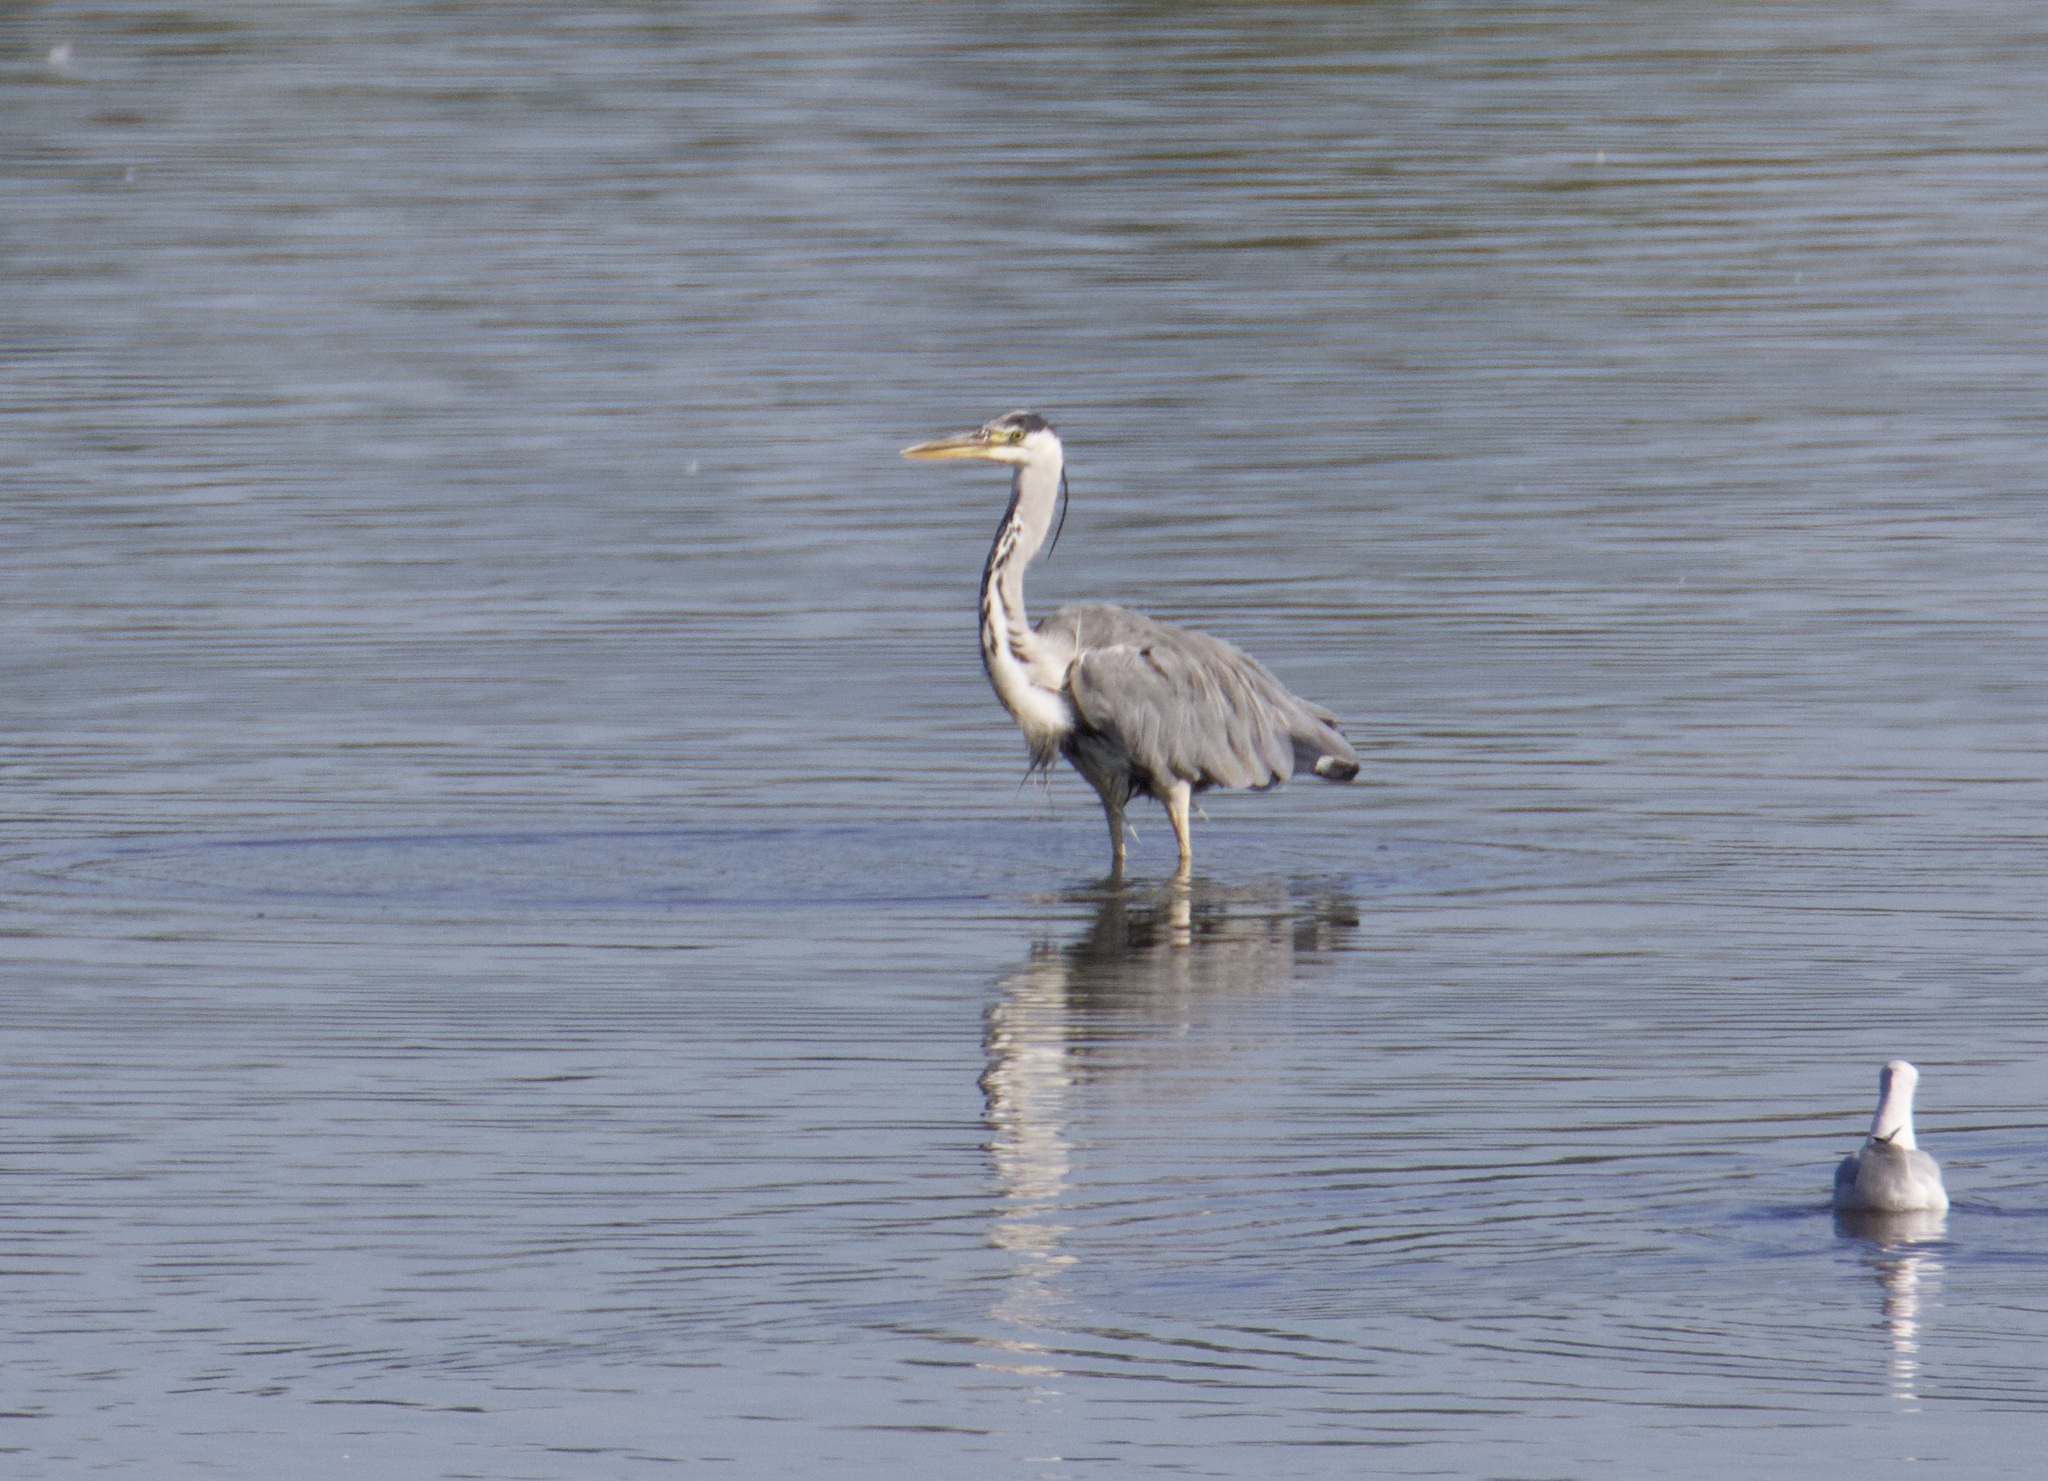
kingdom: Animalia
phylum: Chordata
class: Aves
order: Pelecaniformes
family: Ardeidae
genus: Ardea
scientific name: Ardea cinerea
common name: Grey heron
